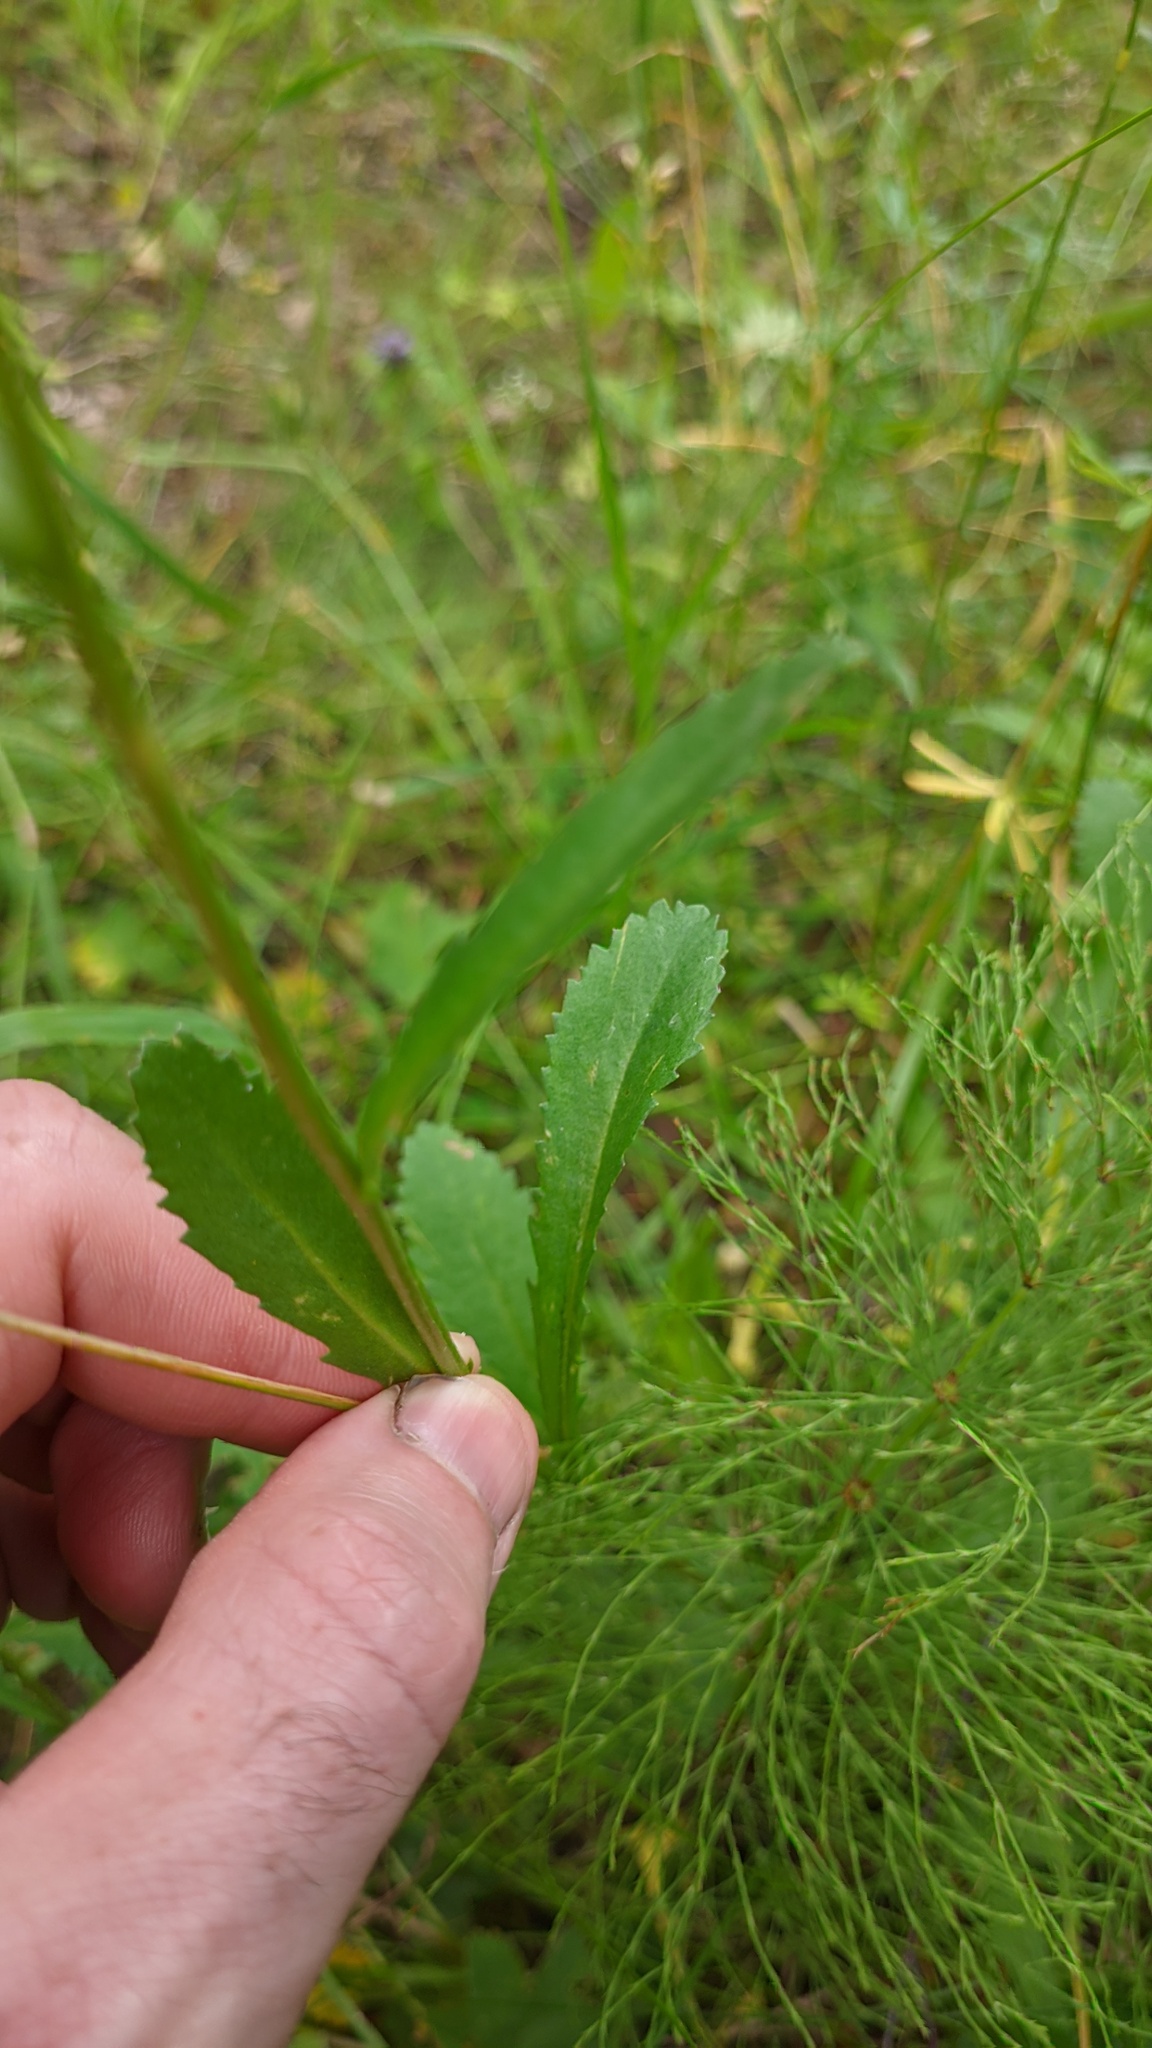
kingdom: Plantae
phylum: Tracheophyta
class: Magnoliopsida
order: Asterales
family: Asteraceae
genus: Leucanthemum
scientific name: Leucanthemum vulgare
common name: Oxeye daisy
